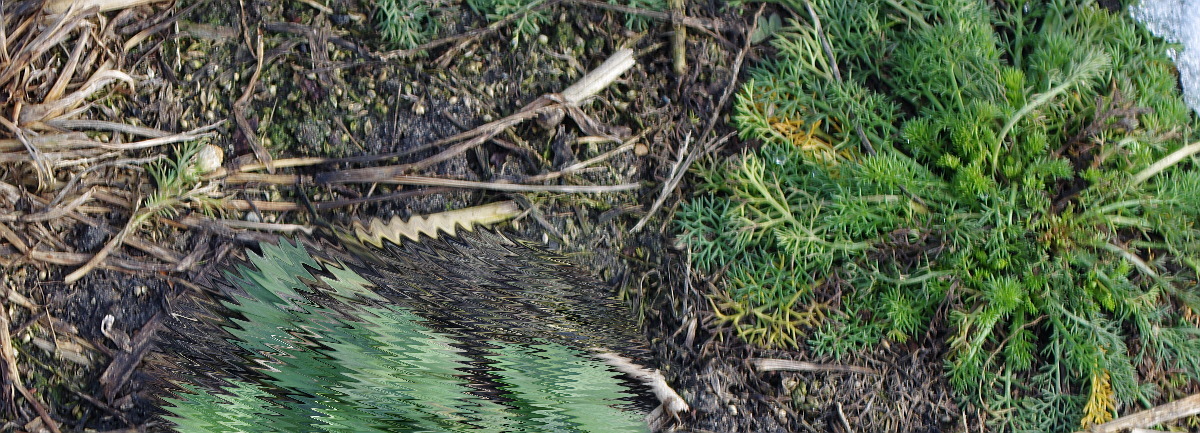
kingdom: Plantae
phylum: Tracheophyta
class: Magnoliopsida
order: Asterales
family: Asteraceae
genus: Tripleurospermum
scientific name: Tripleurospermum inodorum
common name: Scentless mayweed
